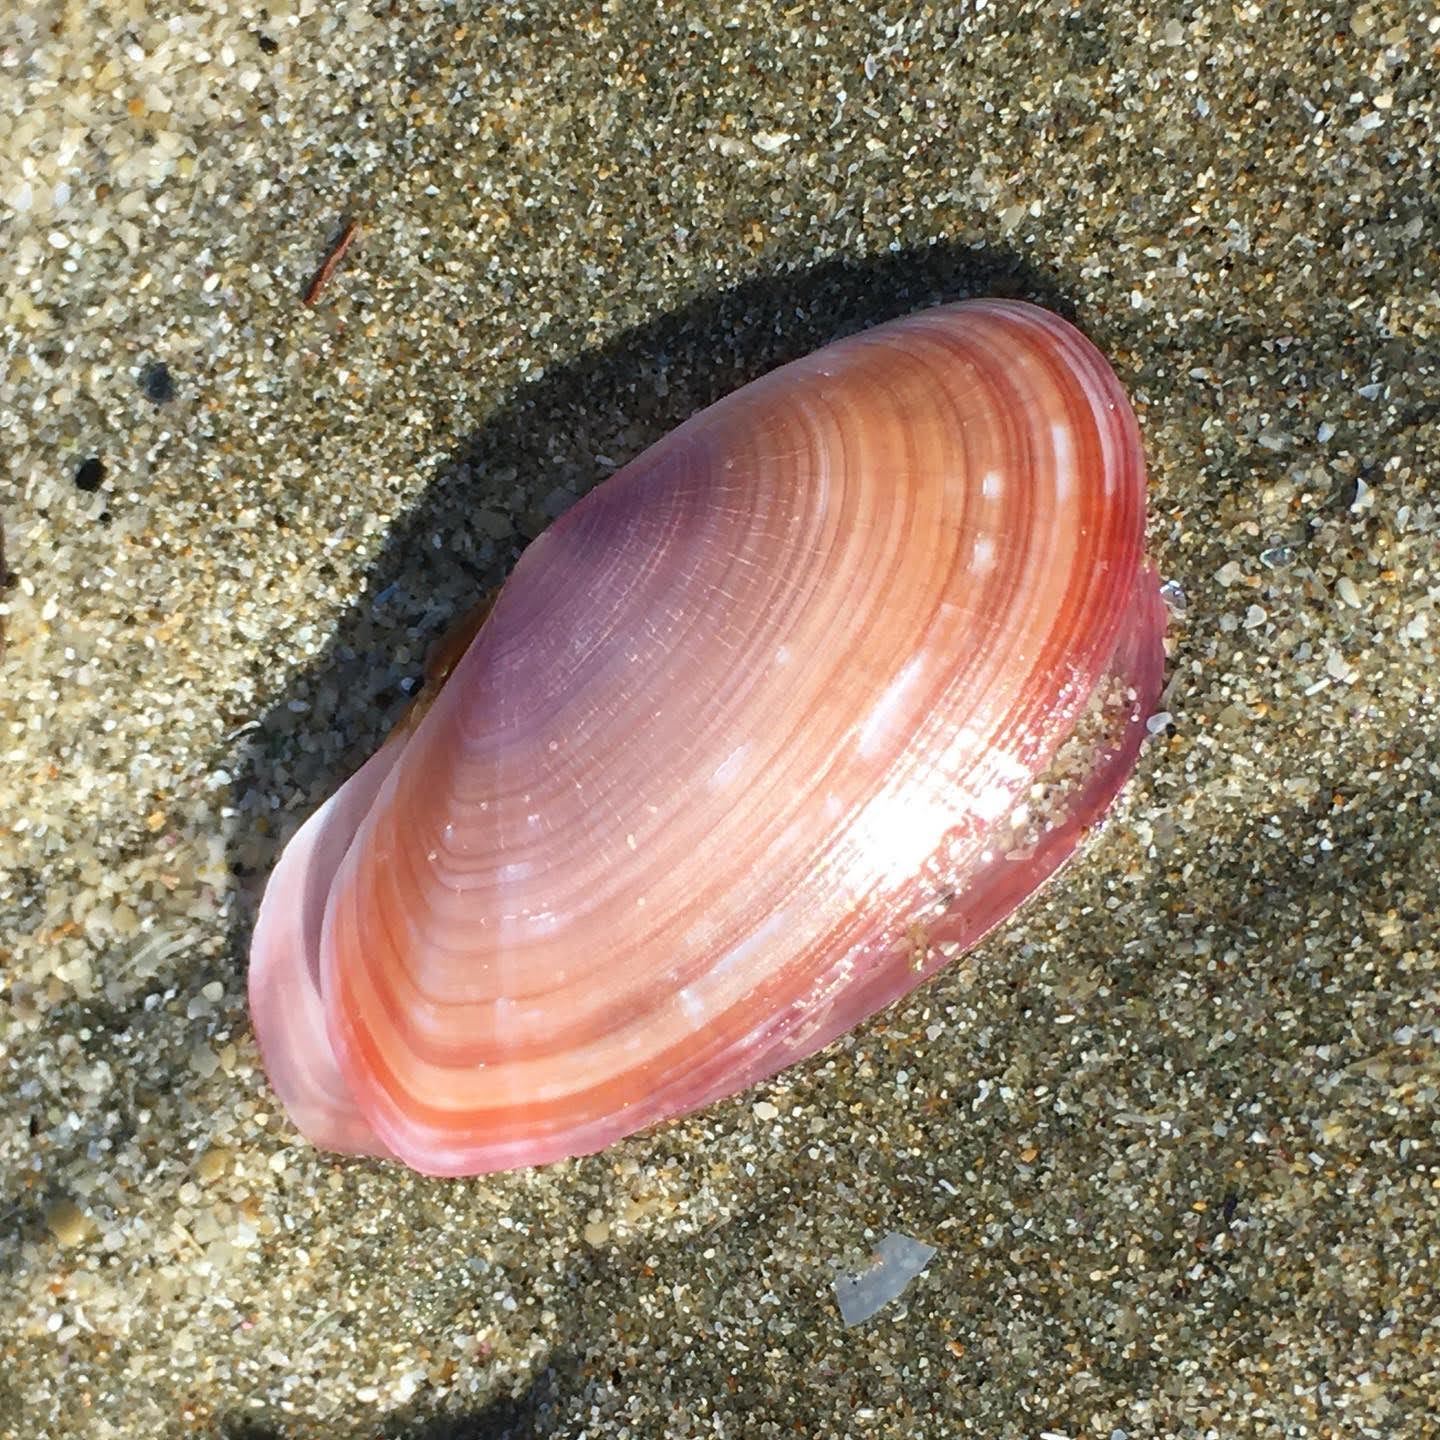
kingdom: Animalia
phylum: Mollusca
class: Bivalvia
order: Cardiida
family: Psammobiidae
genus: Gari
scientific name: Gari lineolata
